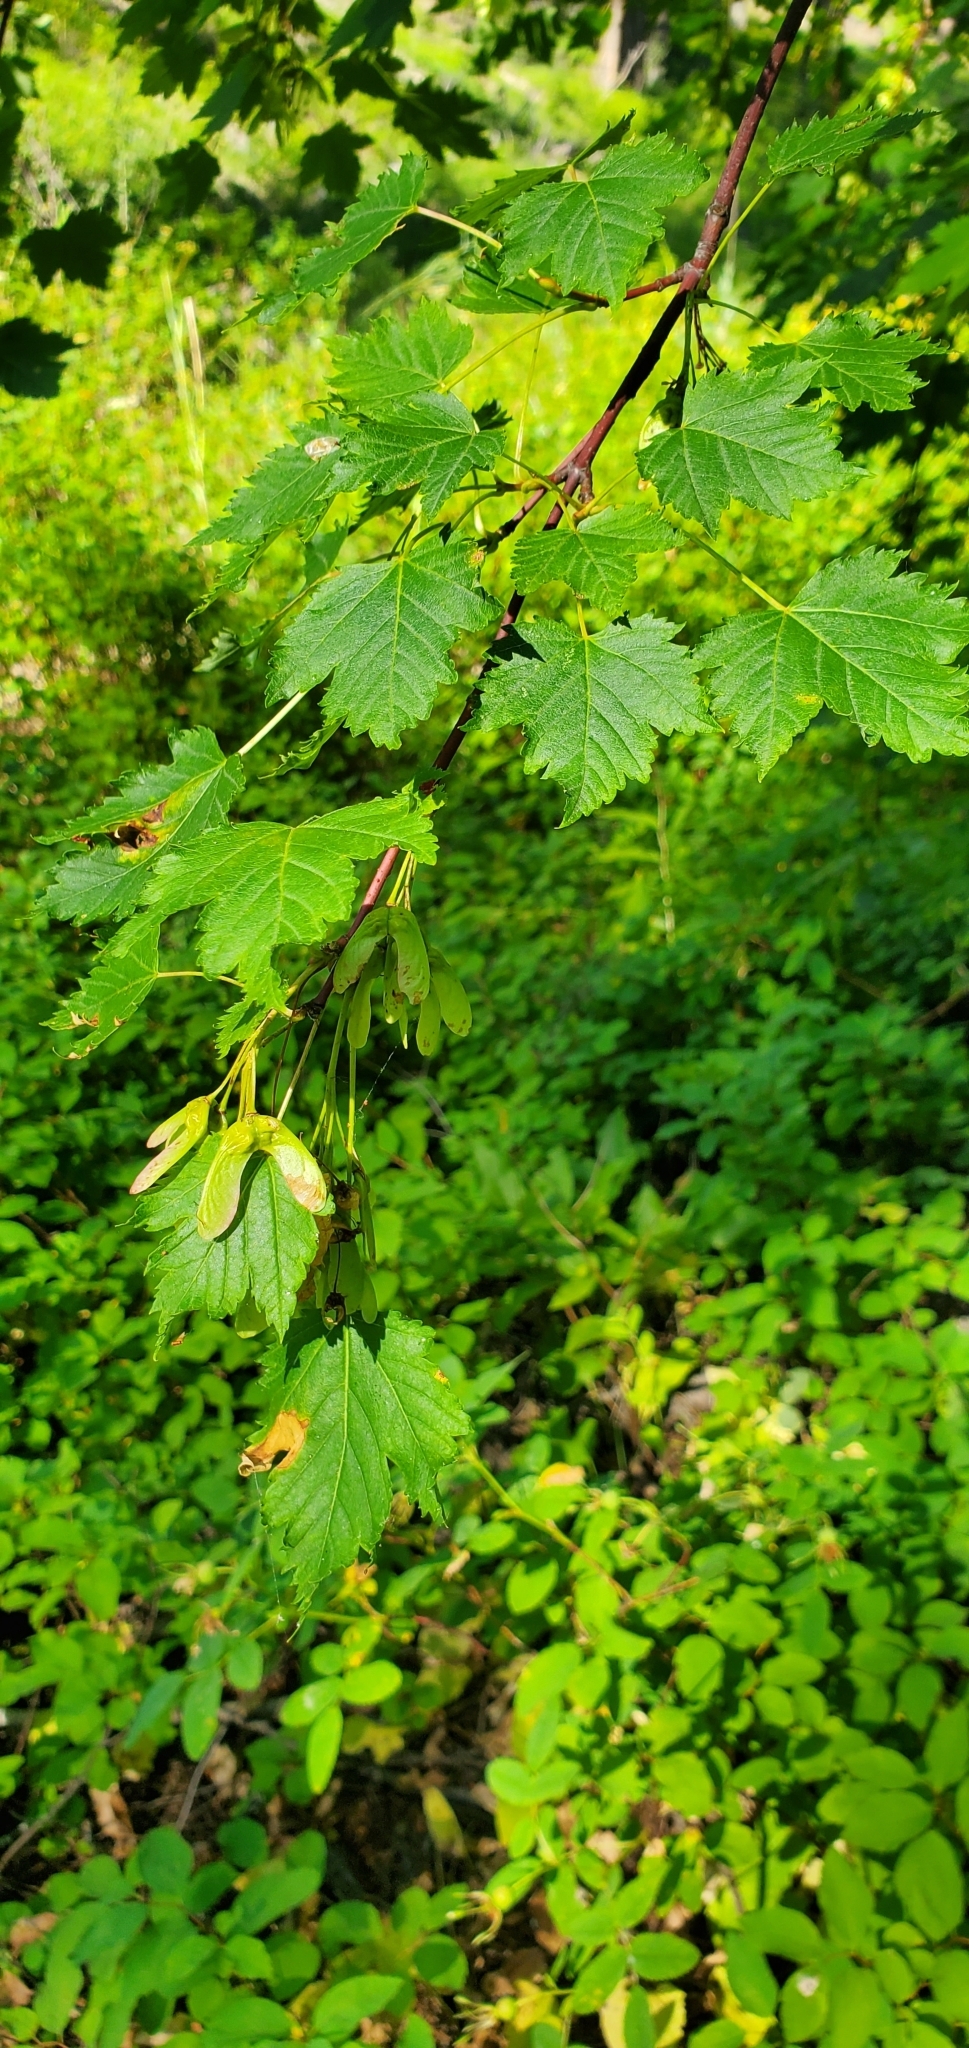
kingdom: Plantae
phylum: Tracheophyta
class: Magnoliopsida
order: Sapindales
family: Sapindaceae
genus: Acer
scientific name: Acer glabrum
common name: Rocky mountain maple
